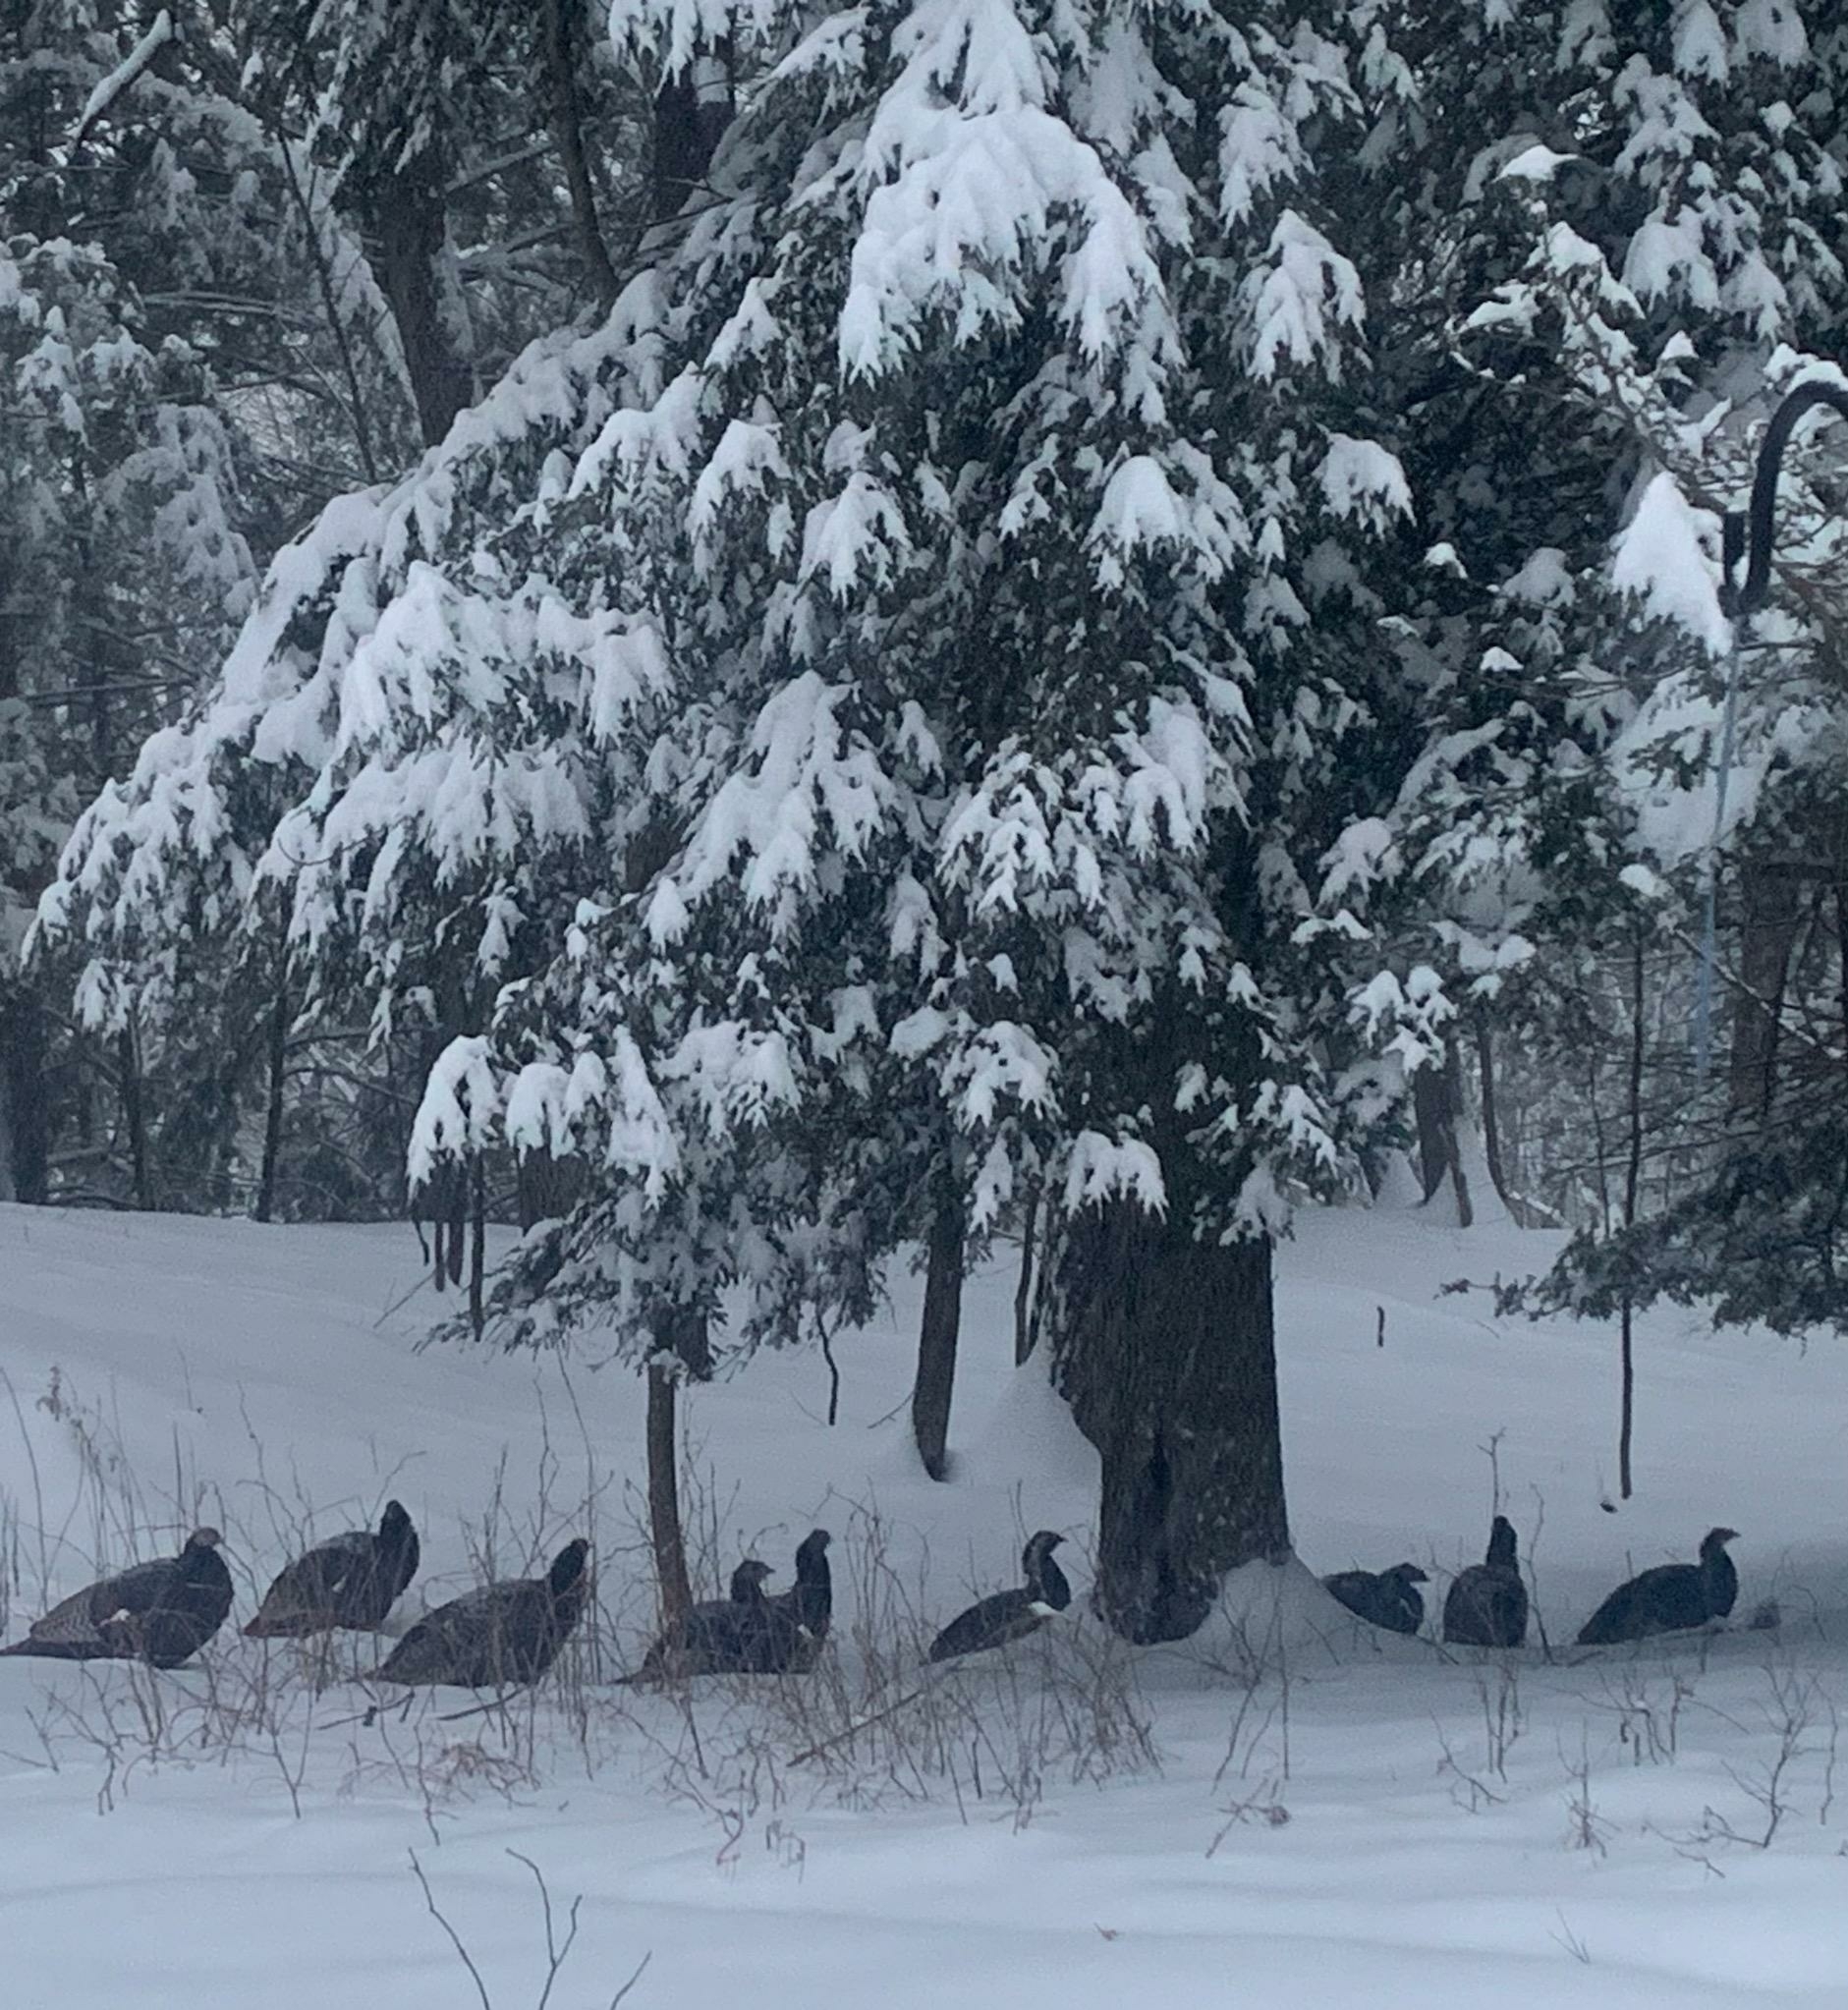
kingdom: Animalia
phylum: Chordata
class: Aves
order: Galliformes
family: Phasianidae
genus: Meleagris
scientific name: Meleagris gallopavo
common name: Wild turkey
